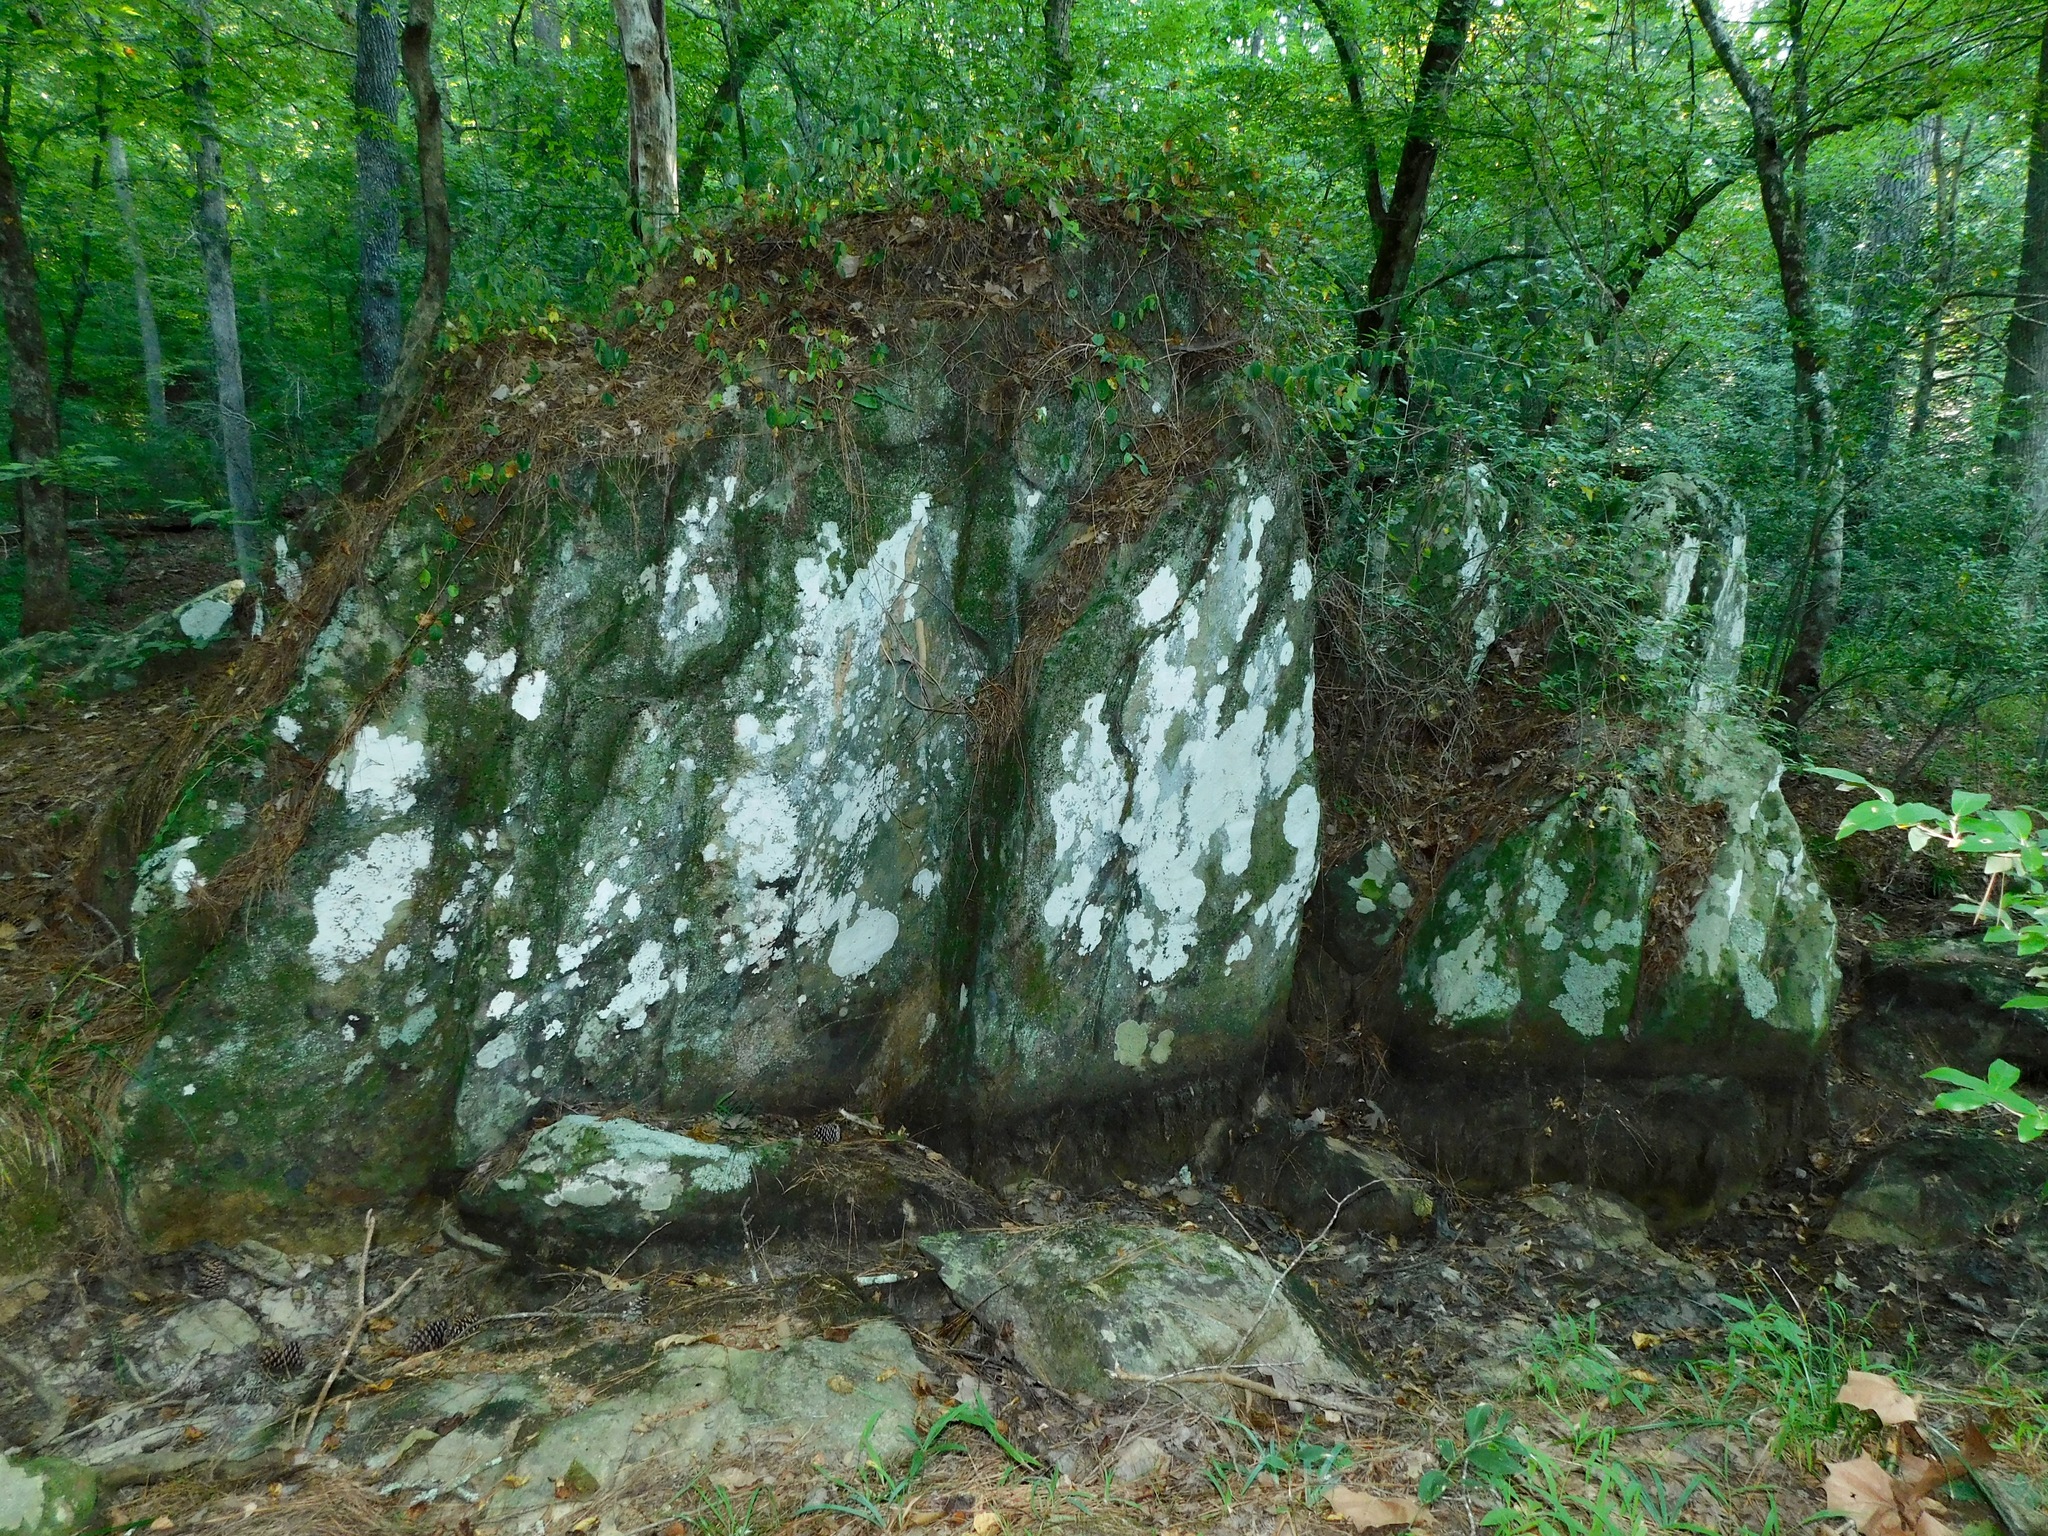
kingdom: Fungi
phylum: Ascomycota
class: Lecanoromycetes
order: Lecanorales
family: Ramalinaceae
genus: Phyllopsora
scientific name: Phyllopsora confusa
